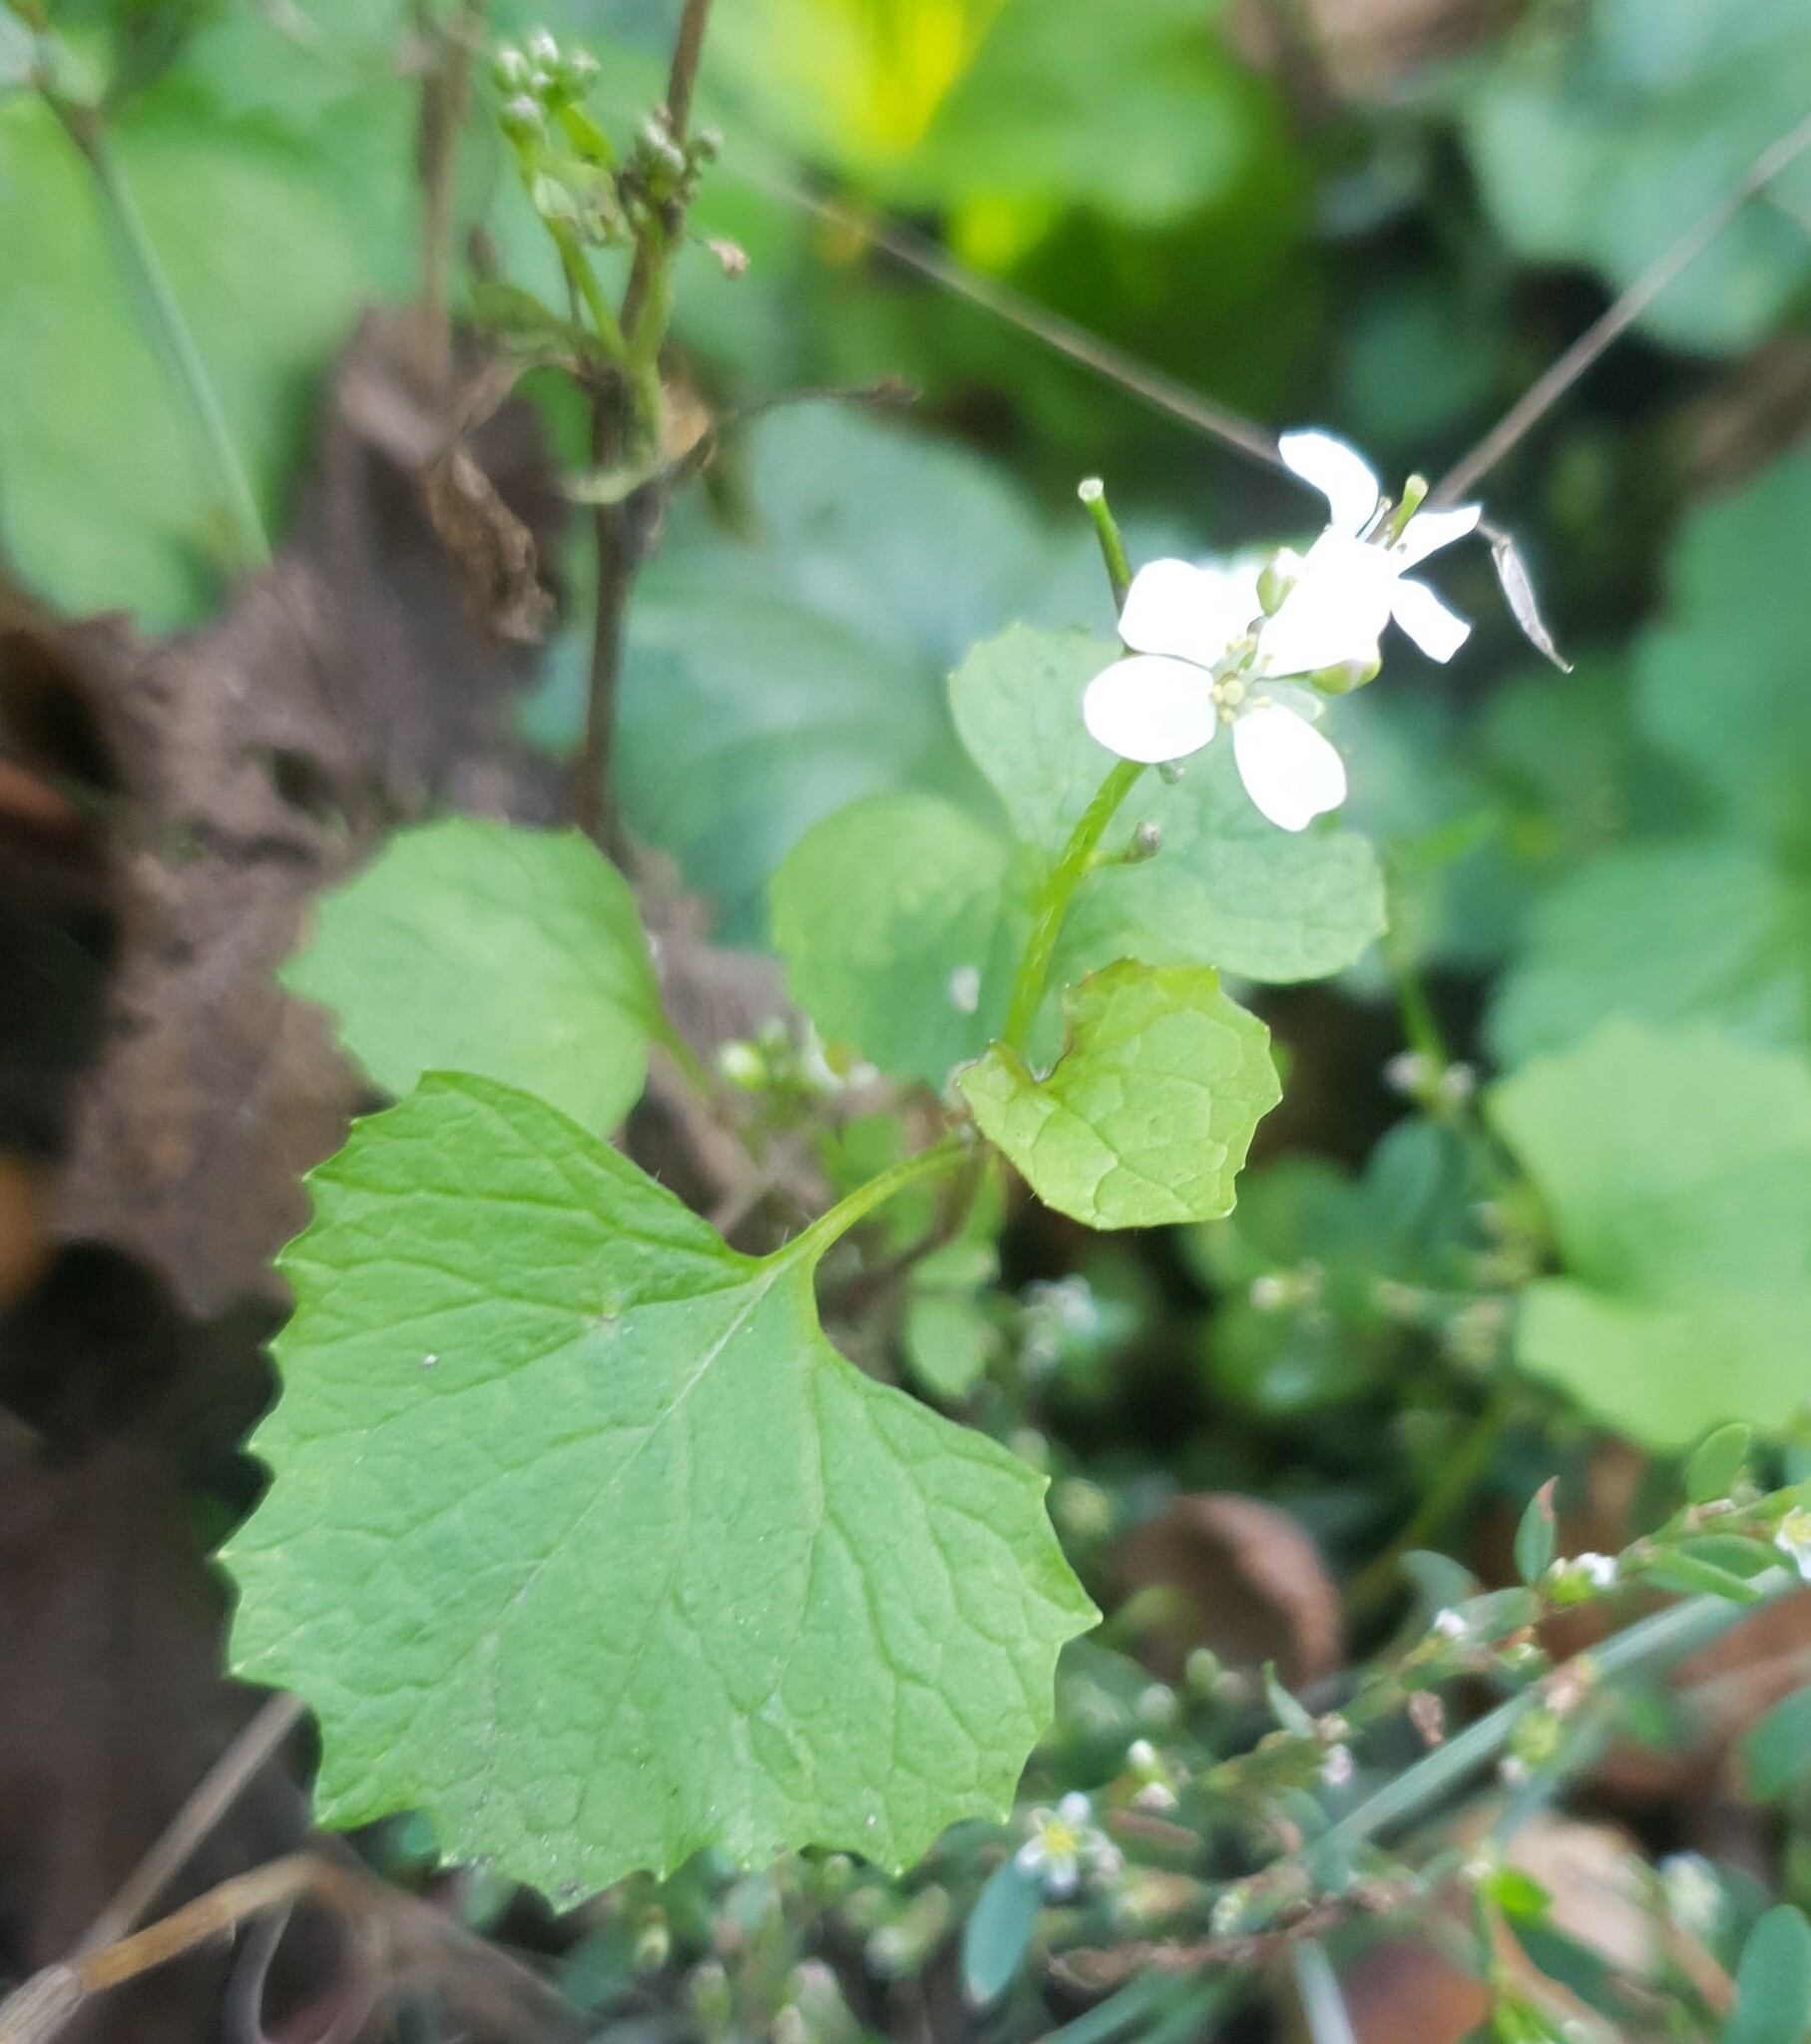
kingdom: Plantae
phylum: Tracheophyta
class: Magnoliopsida
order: Brassicales
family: Brassicaceae
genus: Alliaria
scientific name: Alliaria petiolata
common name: Garlic mustard
